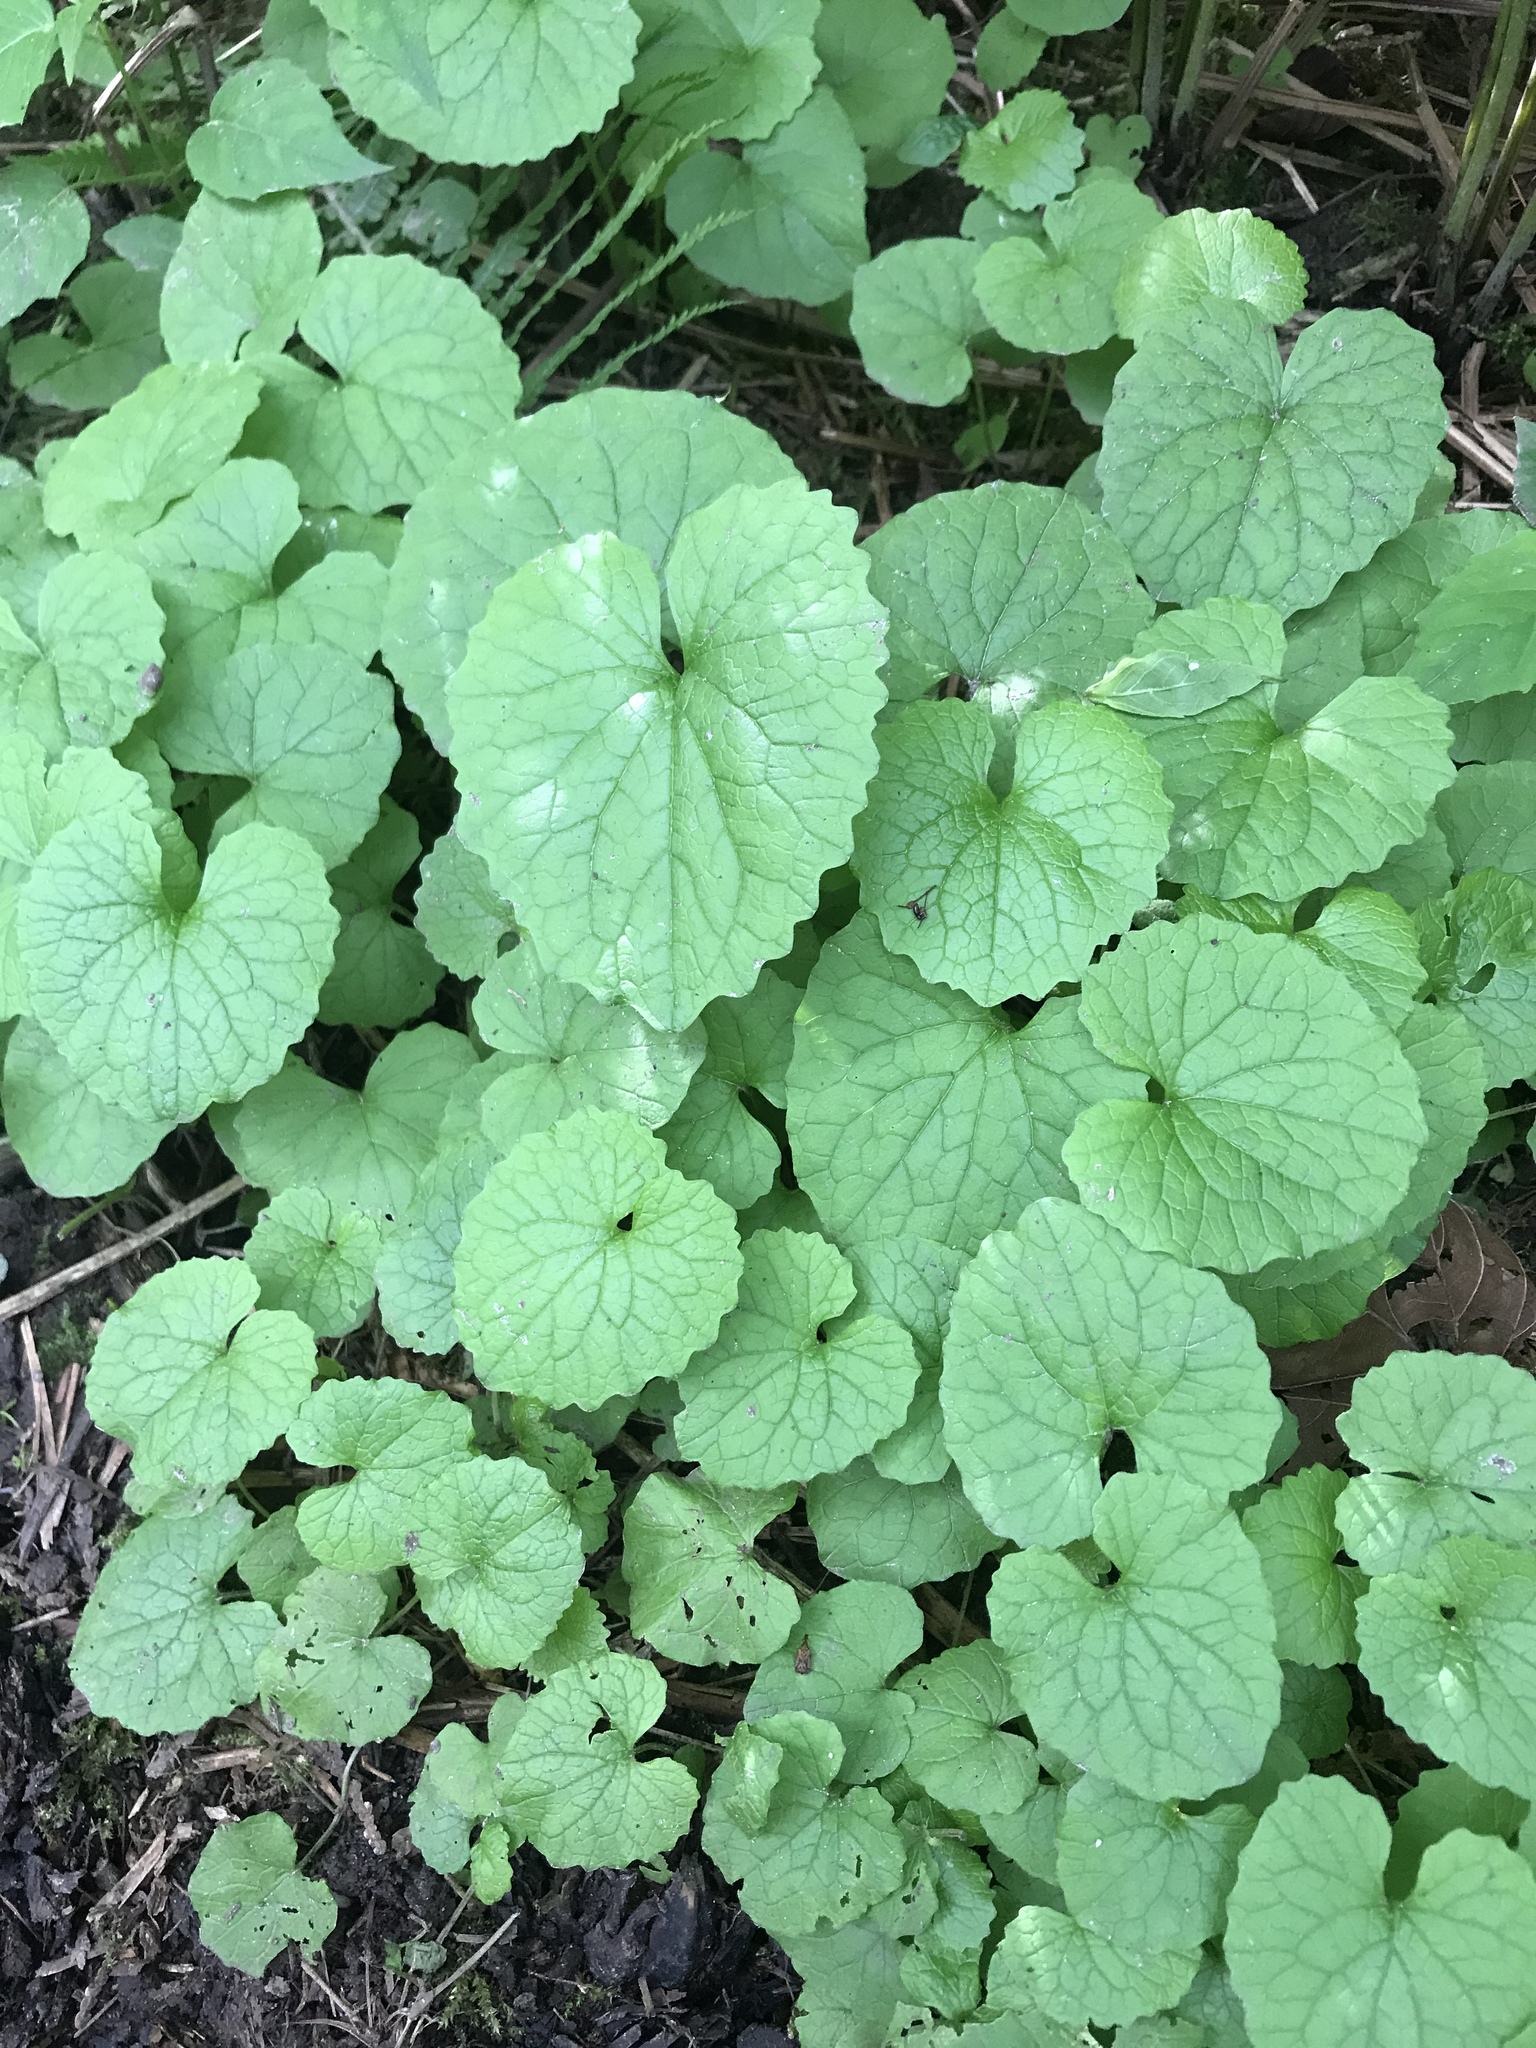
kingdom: Plantae
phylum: Tracheophyta
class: Magnoliopsida
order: Brassicales
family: Brassicaceae
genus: Alliaria
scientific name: Alliaria petiolata
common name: Garlic mustard
